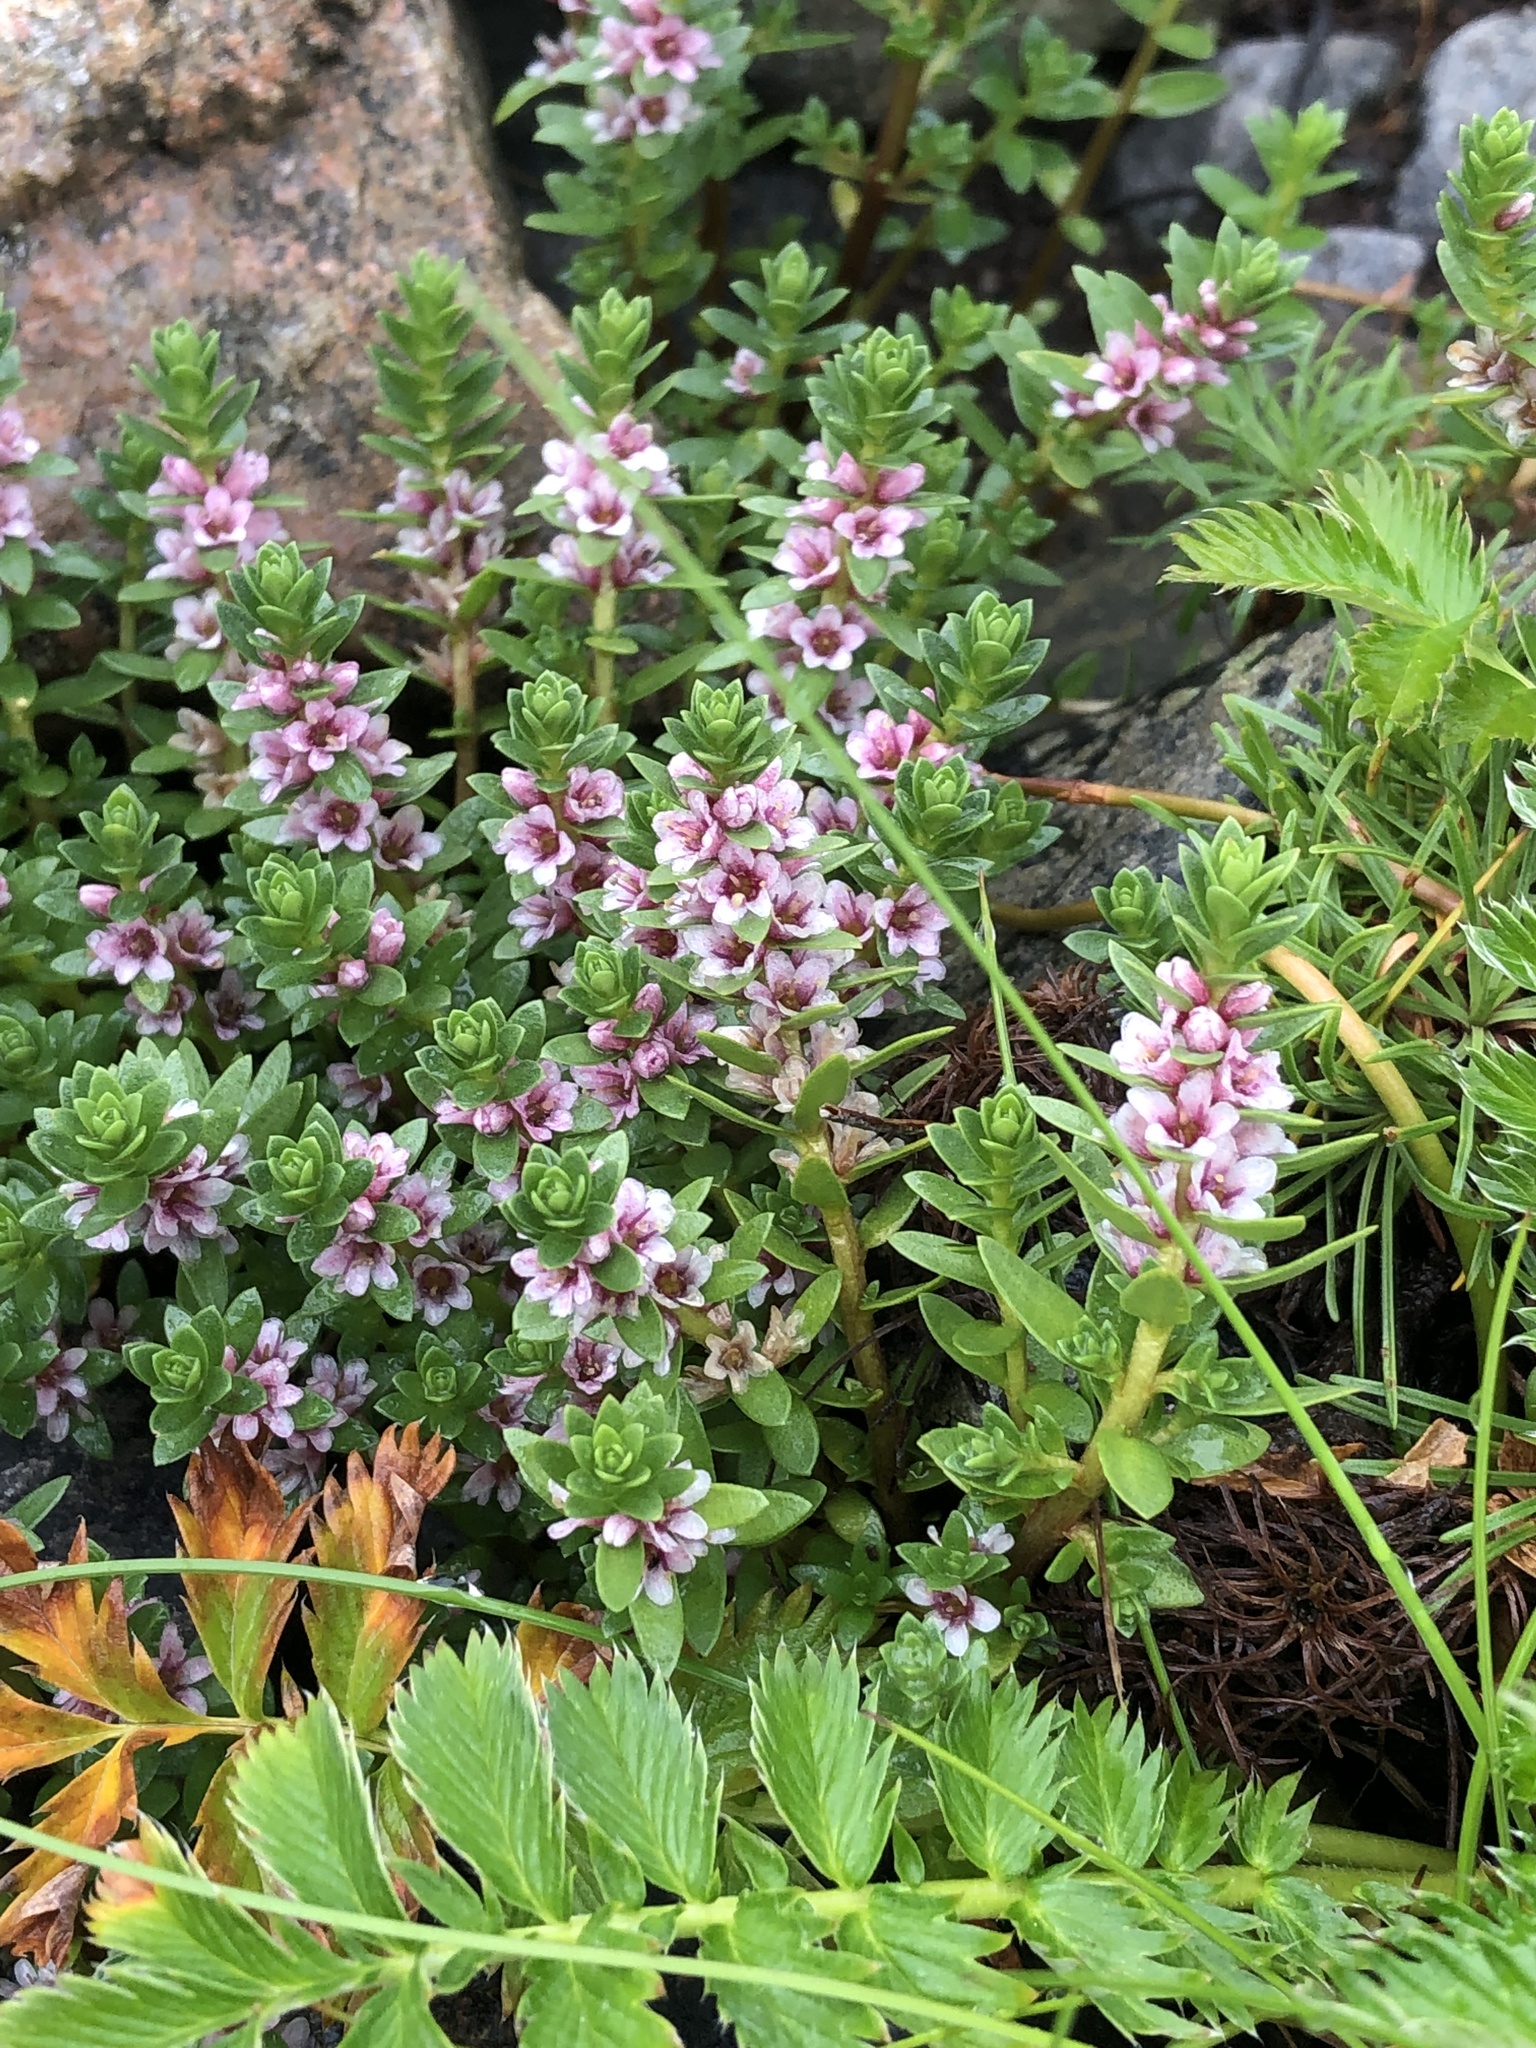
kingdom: Plantae
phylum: Tracheophyta
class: Magnoliopsida
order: Ericales
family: Primulaceae
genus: Lysimachia
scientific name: Lysimachia maritima
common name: Sea milkwort
